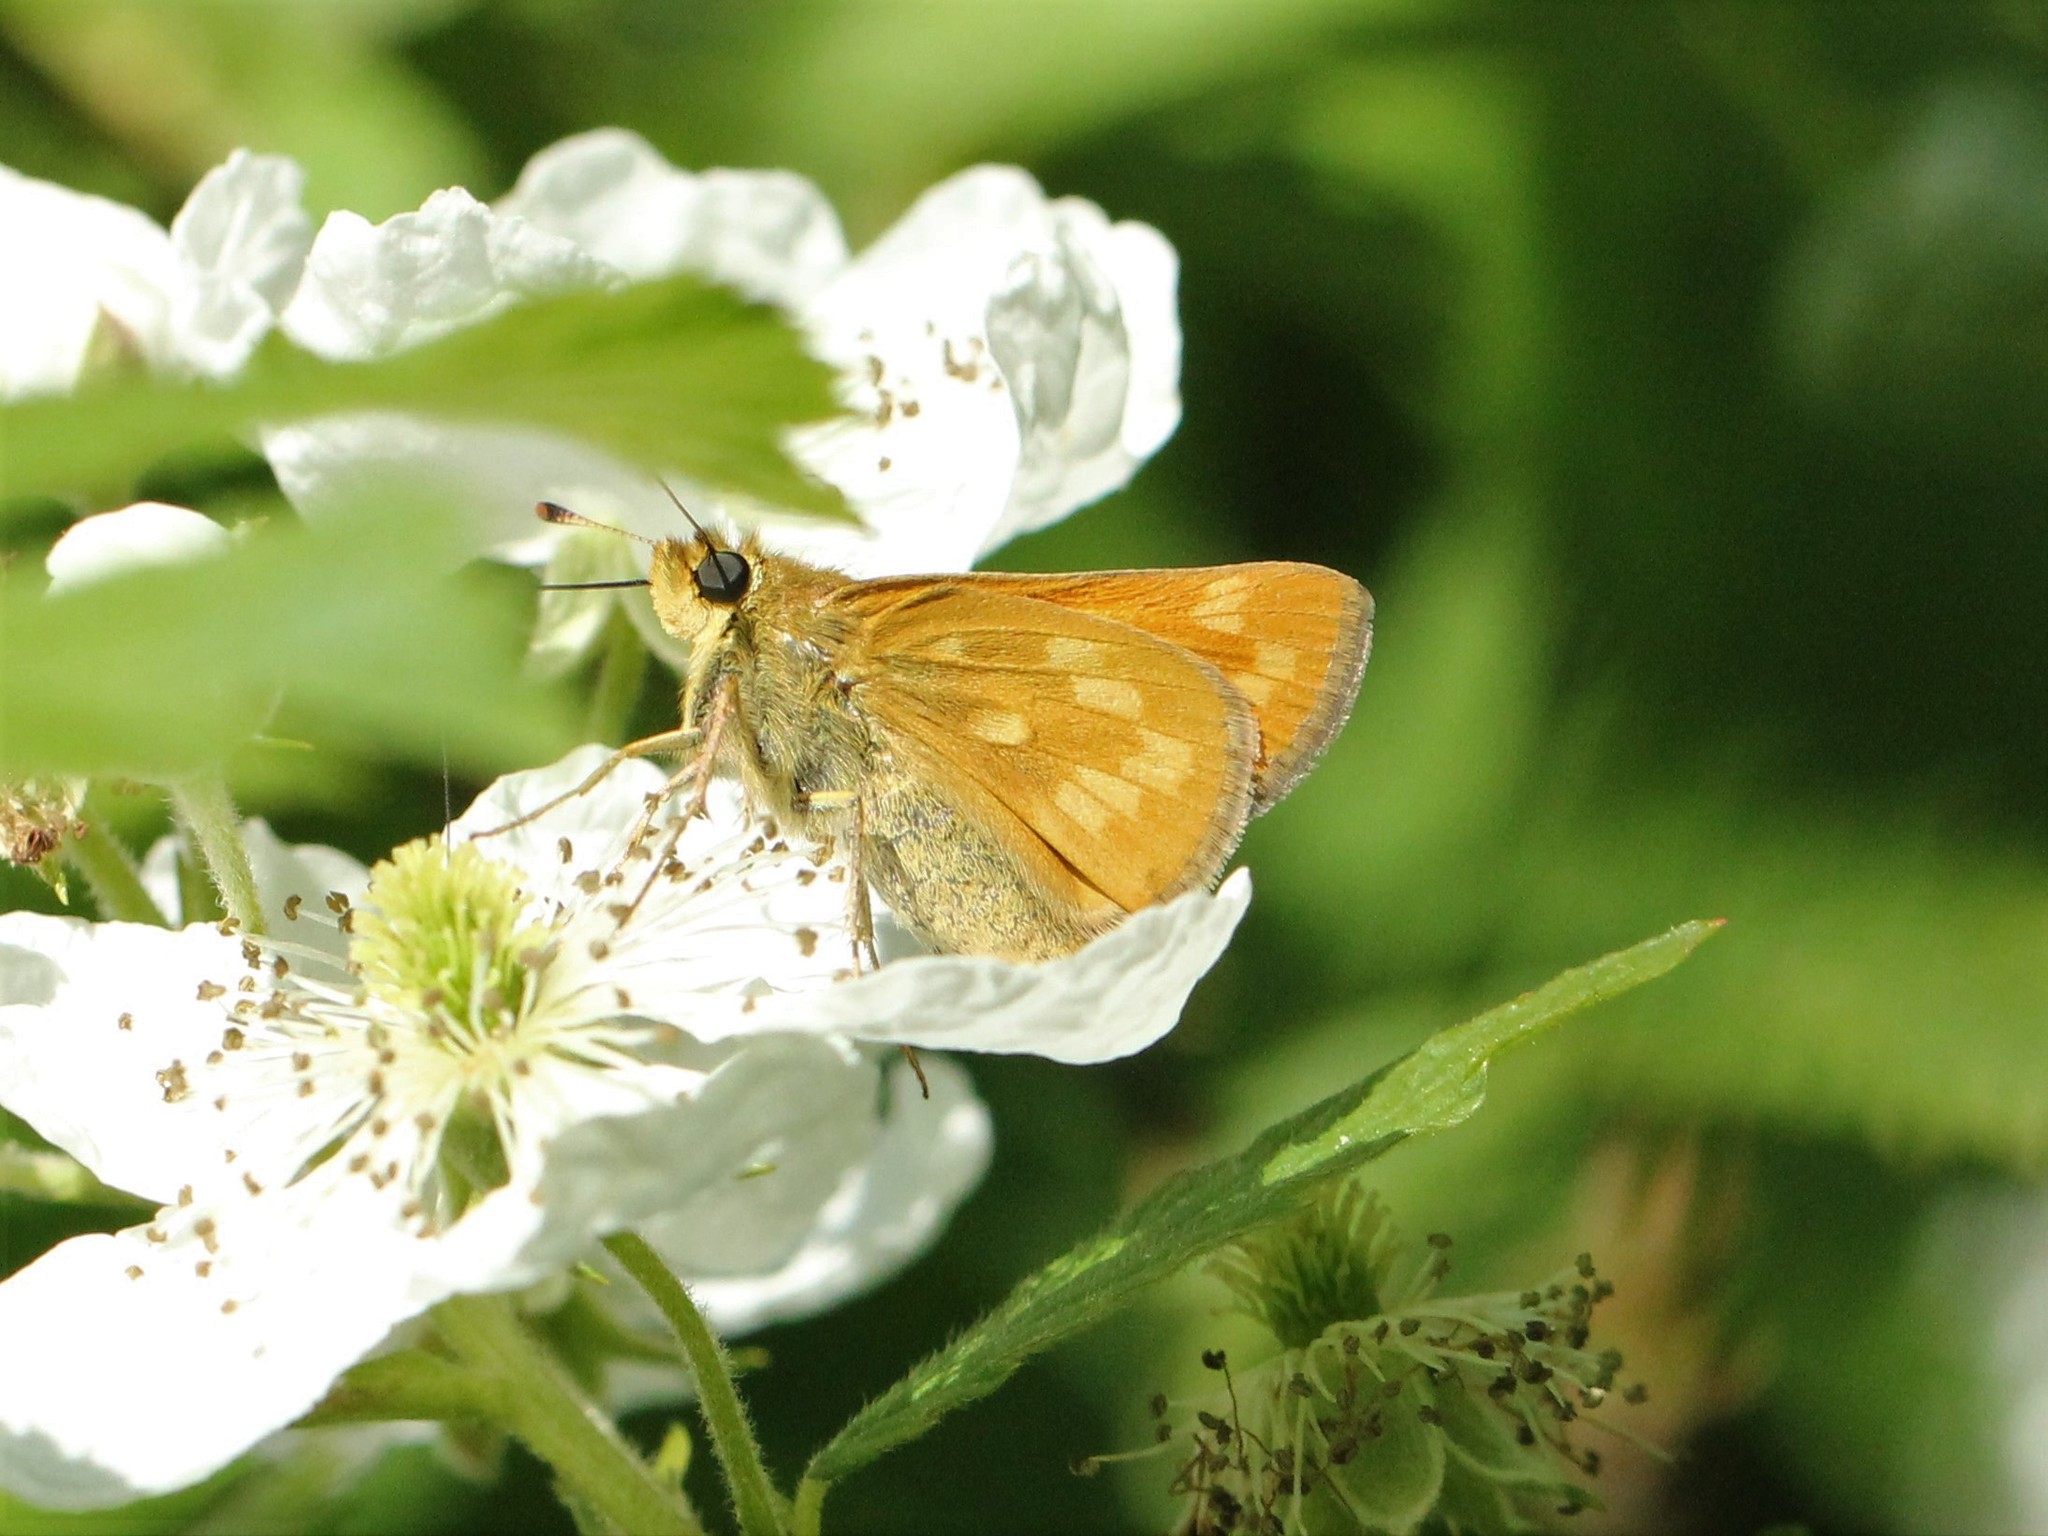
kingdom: Animalia
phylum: Arthropoda
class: Insecta
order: Lepidoptera
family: Hesperiidae
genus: Hesperia
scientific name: Hesperia sassacus
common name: Indian skipper
